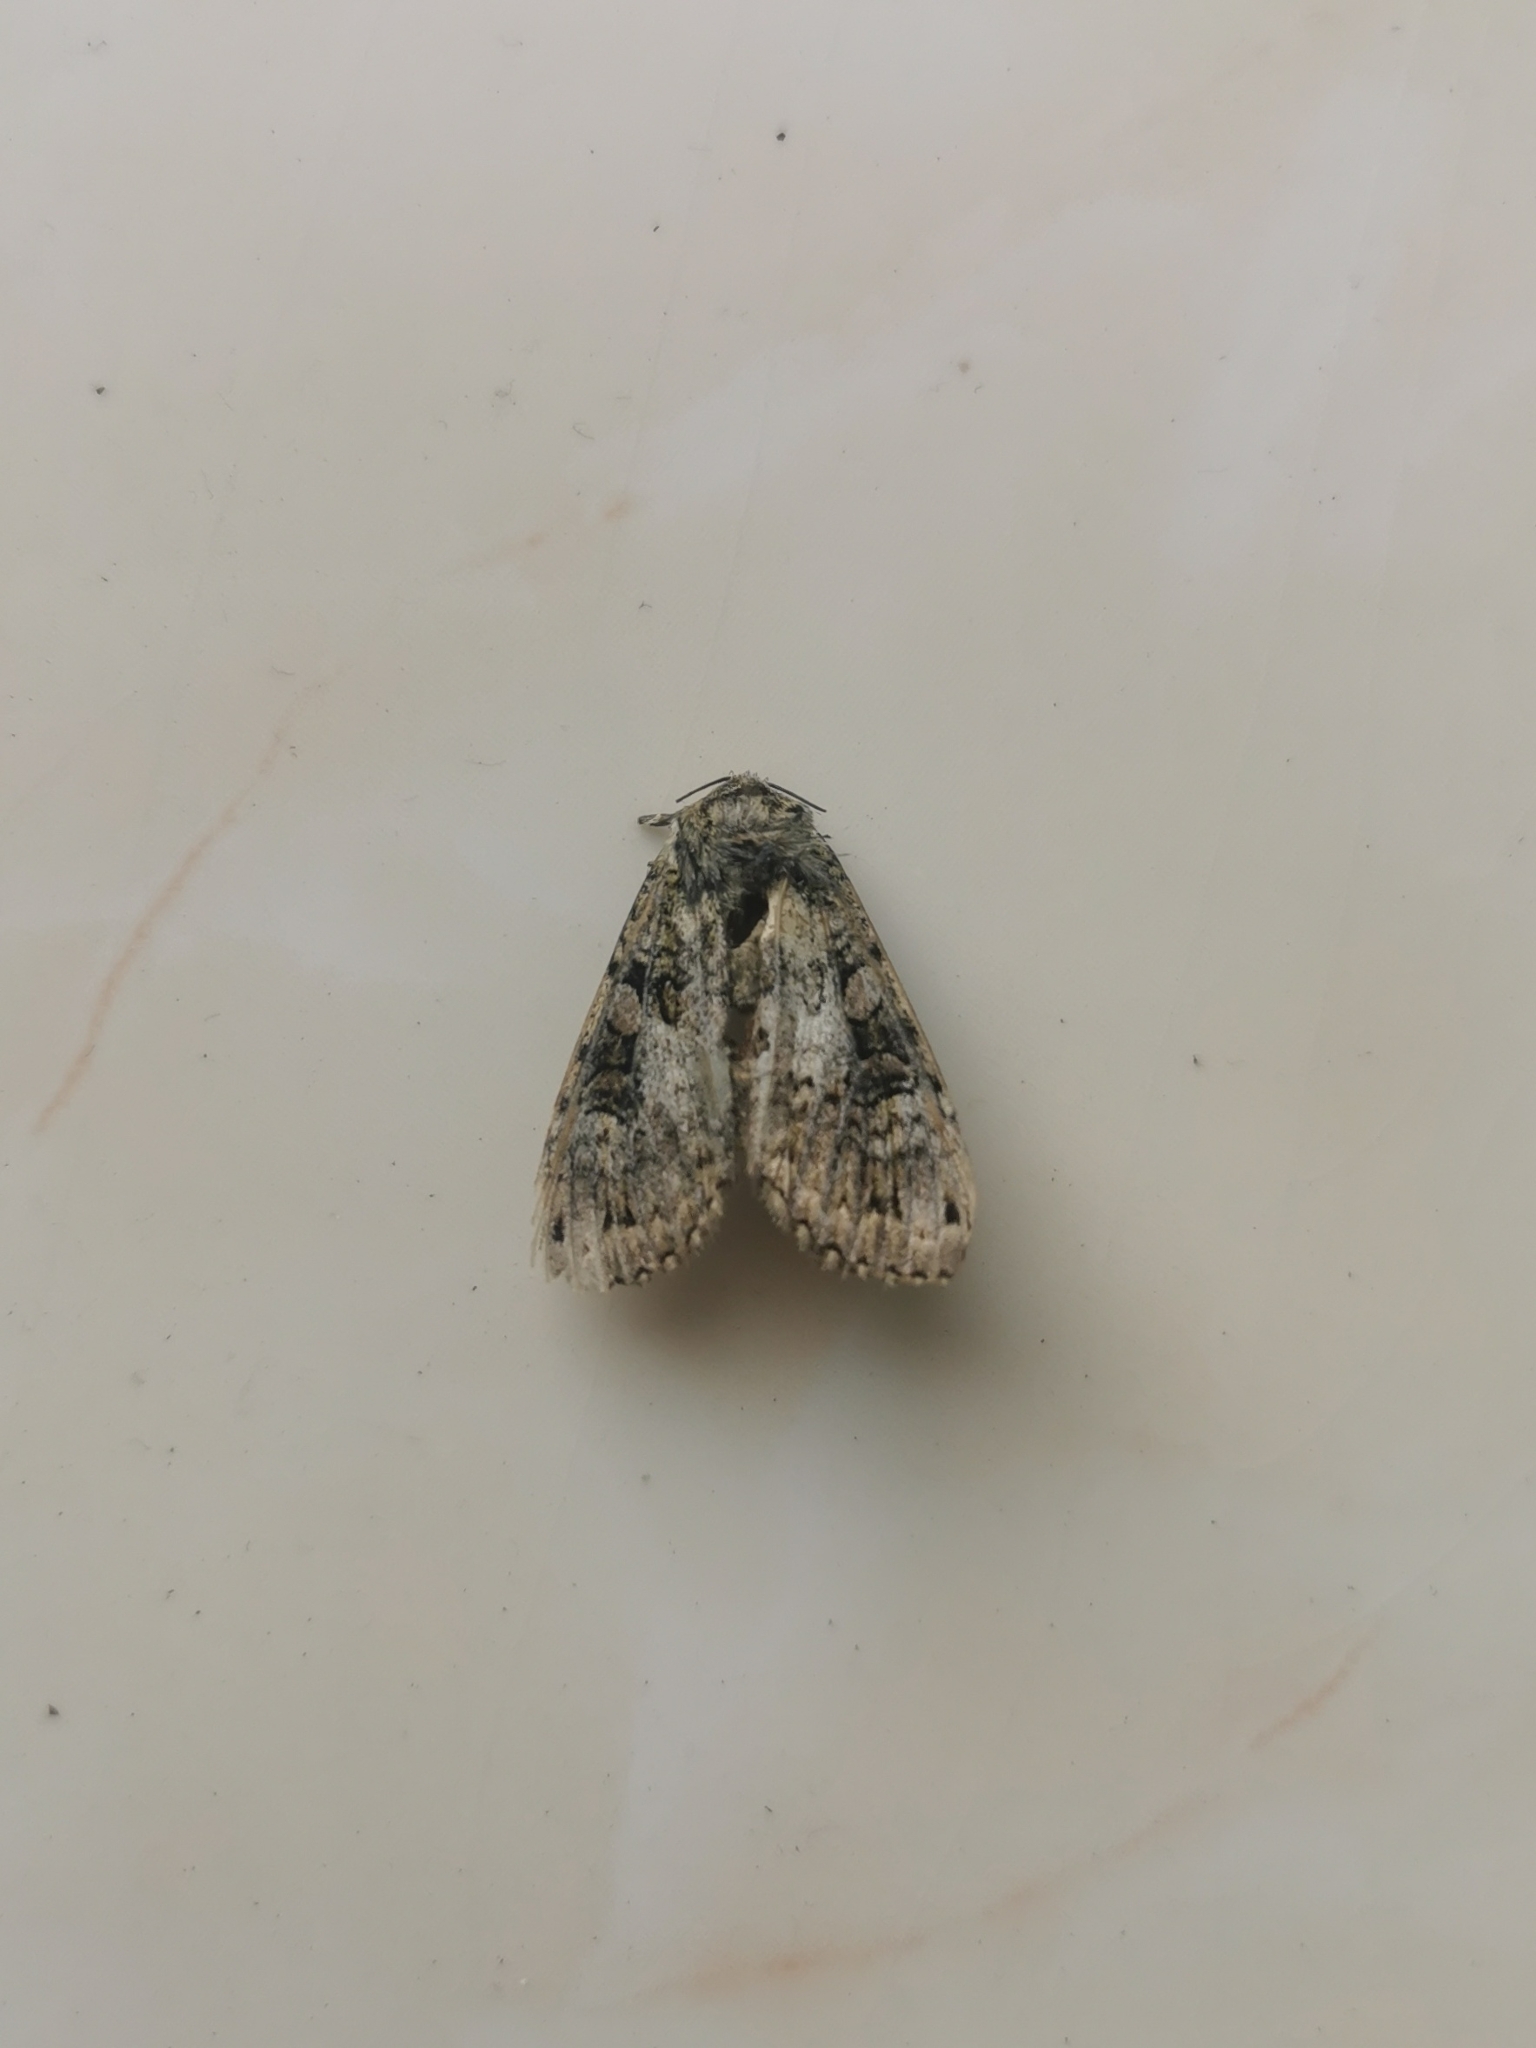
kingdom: Animalia
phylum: Arthropoda
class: Insecta
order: Lepidoptera
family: Noctuidae
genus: Anaplectoides
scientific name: Anaplectoides prasina
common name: Green arches
